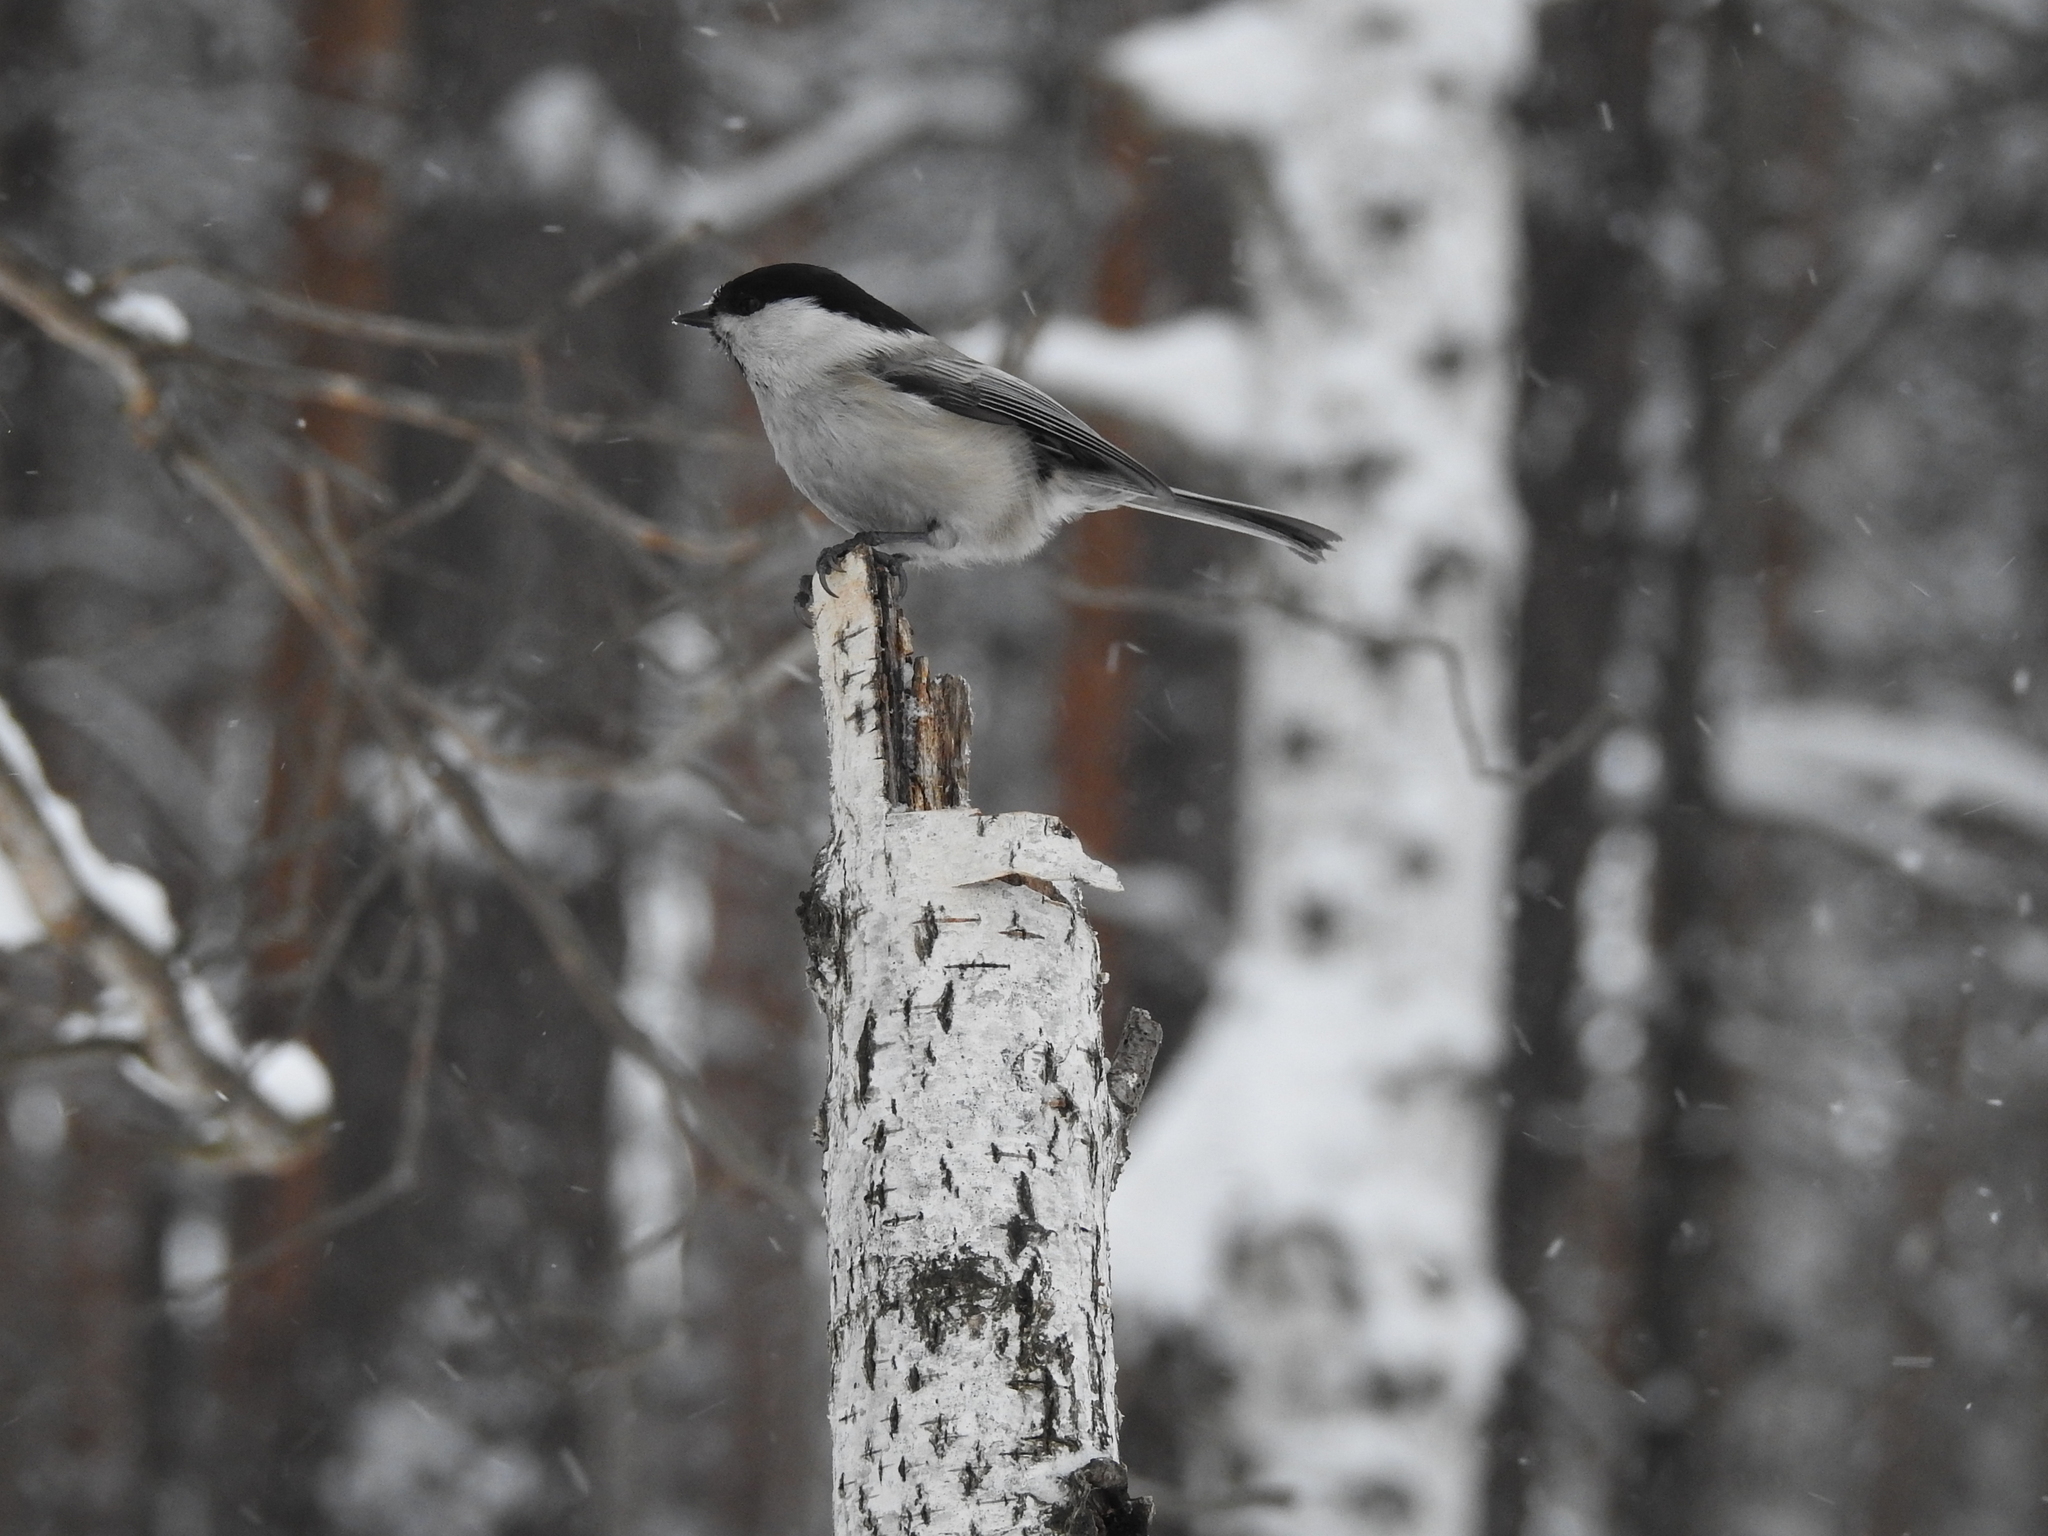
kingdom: Animalia
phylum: Chordata
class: Aves
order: Passeriformes
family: Paridae
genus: Poecile
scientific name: Poecile palustris
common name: Marsh tit
